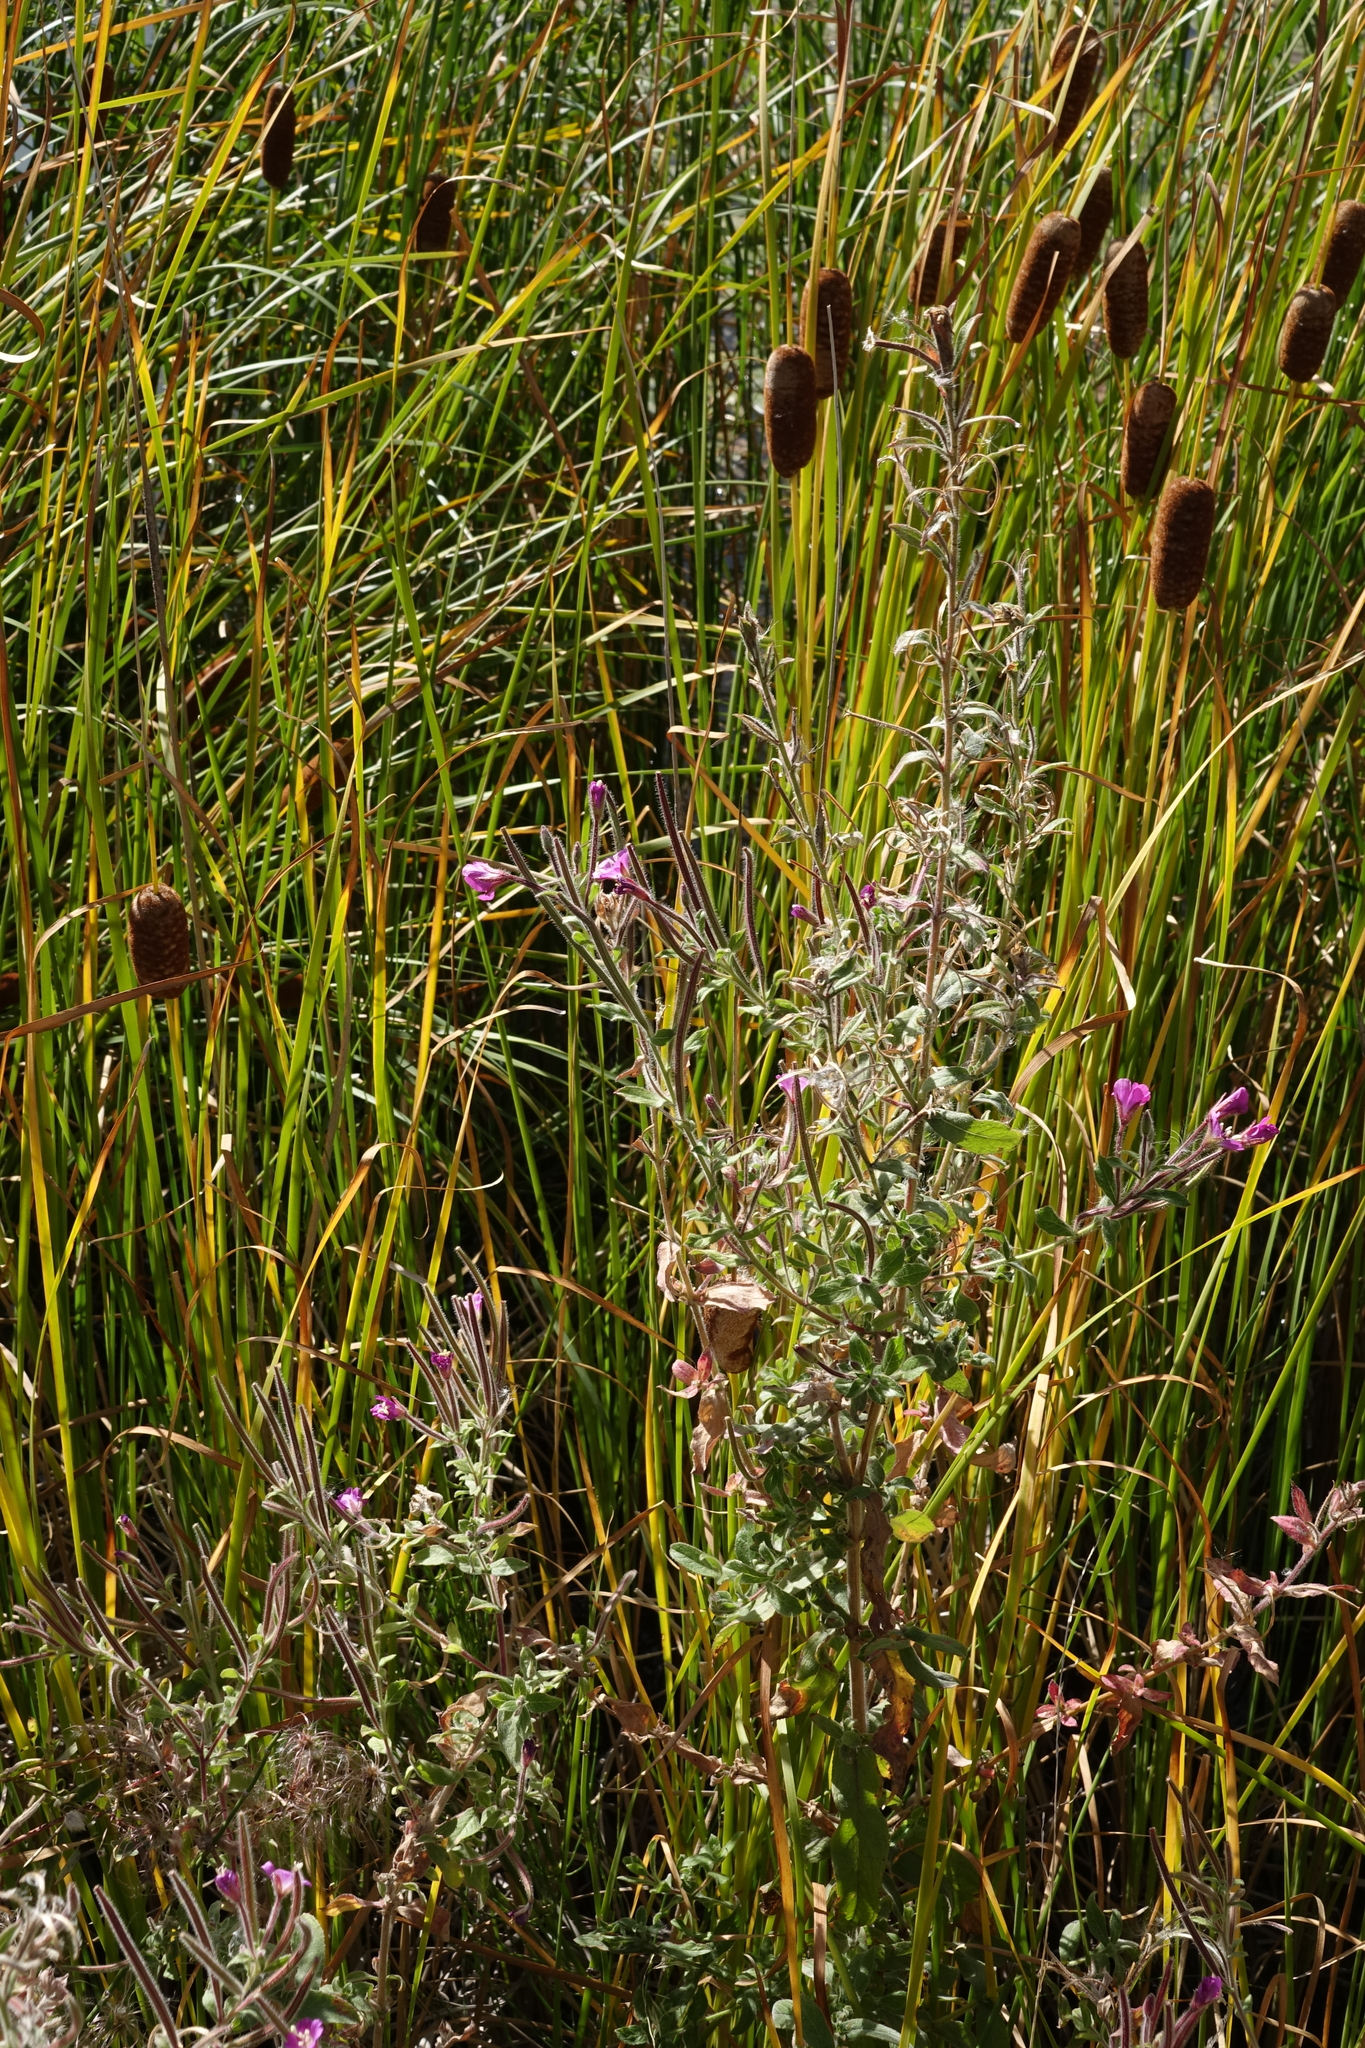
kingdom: Plantae
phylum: Tracheophyta
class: Magnoliopsida
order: Myrtales
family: Onagraceae
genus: Epilobium
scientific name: Epilobium hirsutum
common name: Great willowherb
